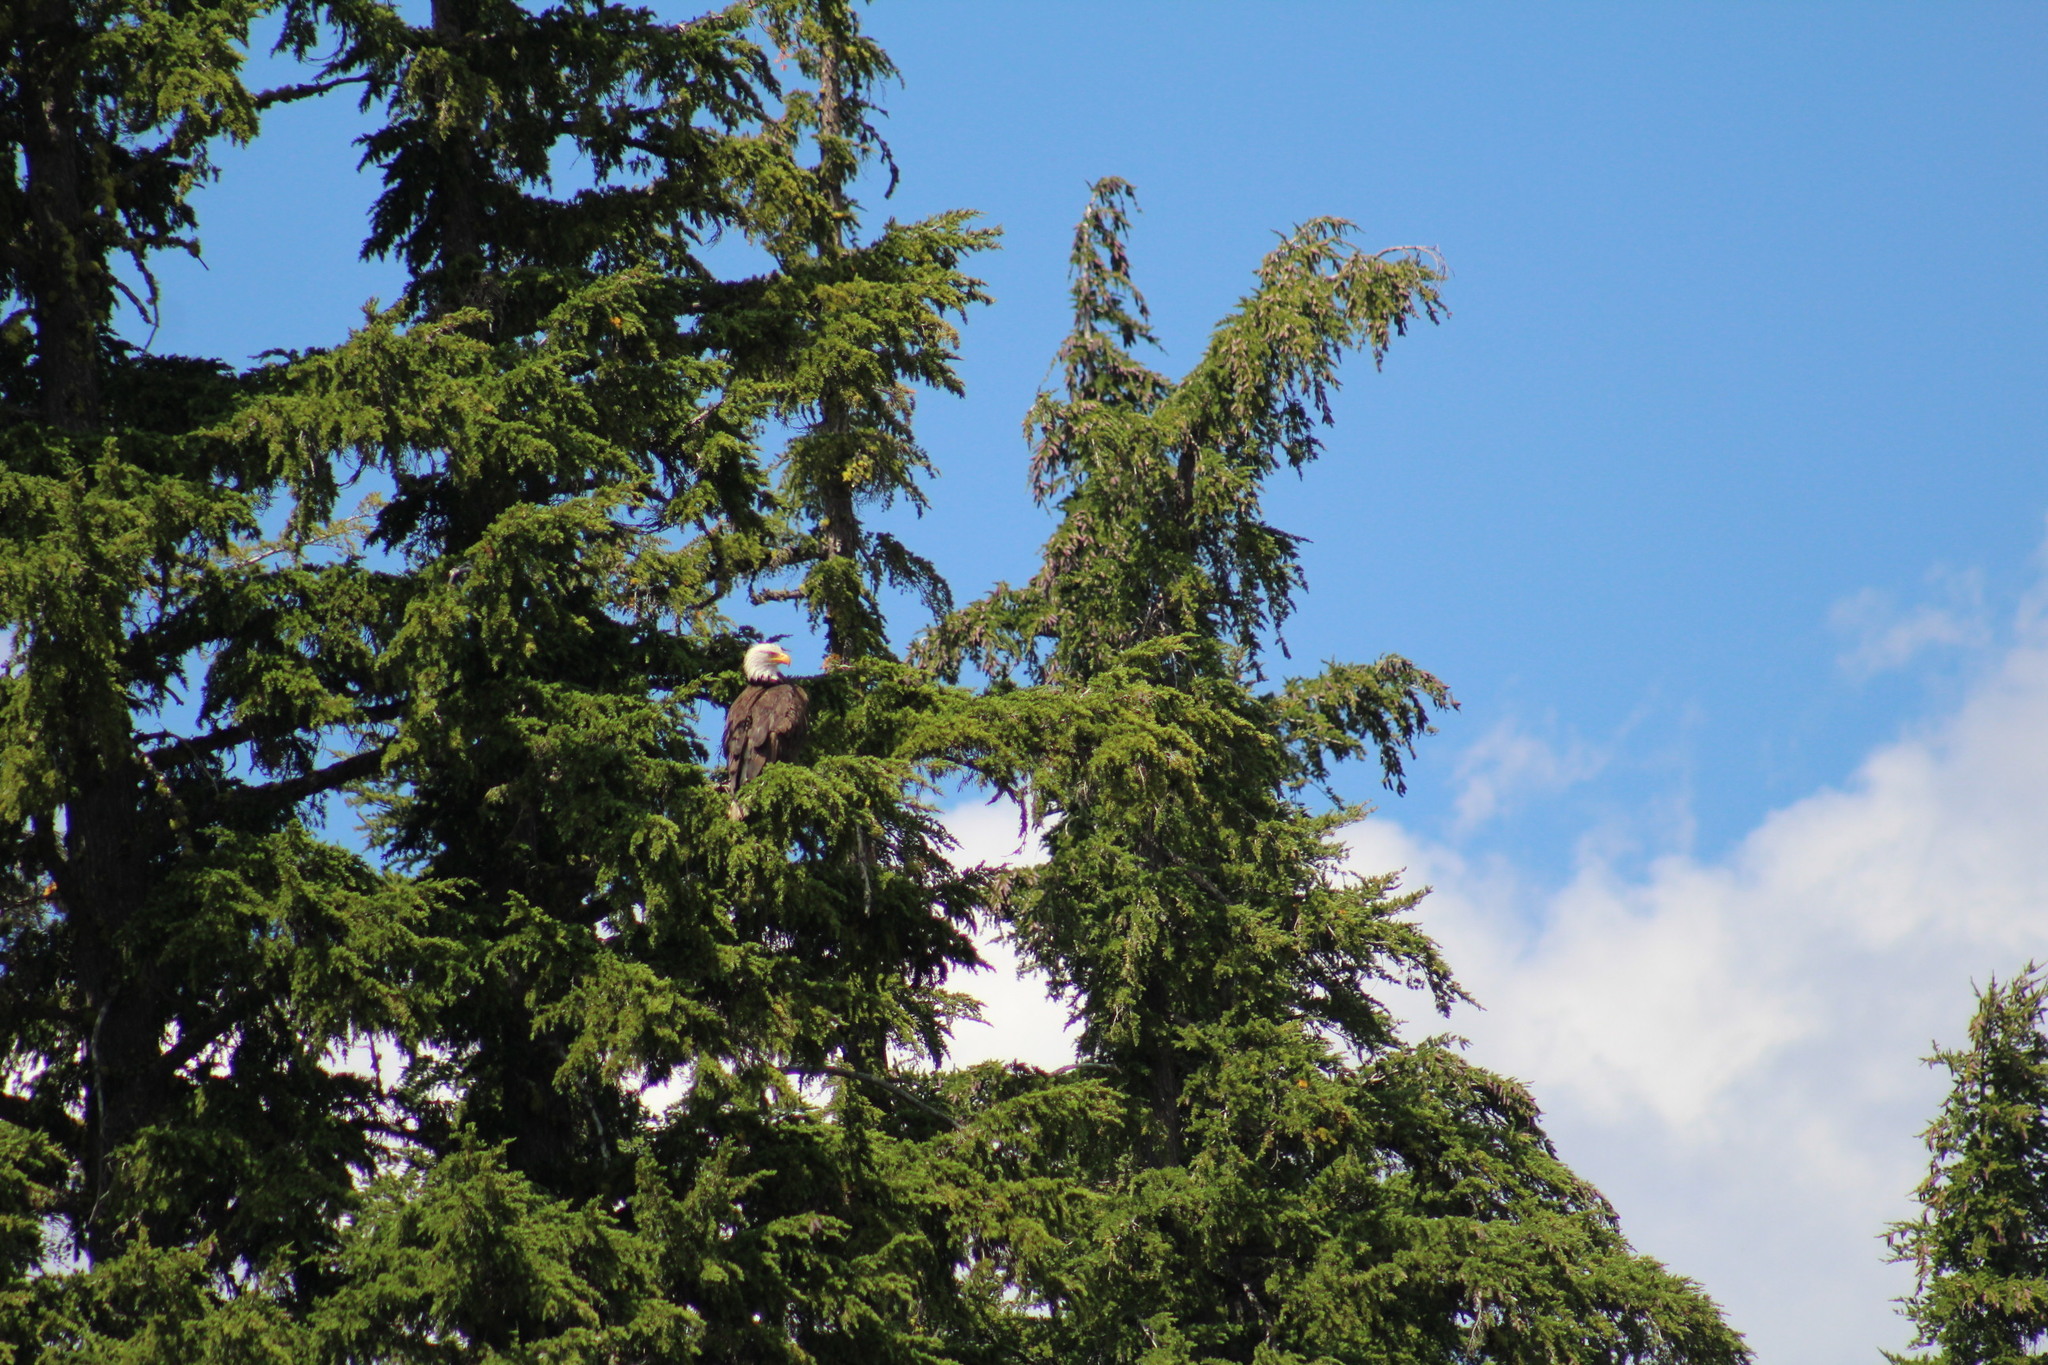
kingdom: Animalia
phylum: Chordata
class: Aves
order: Accipitriformes
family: Accipitridae
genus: Haliaeetus
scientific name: Haliaeetus leucocephalus
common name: Bald eagle
